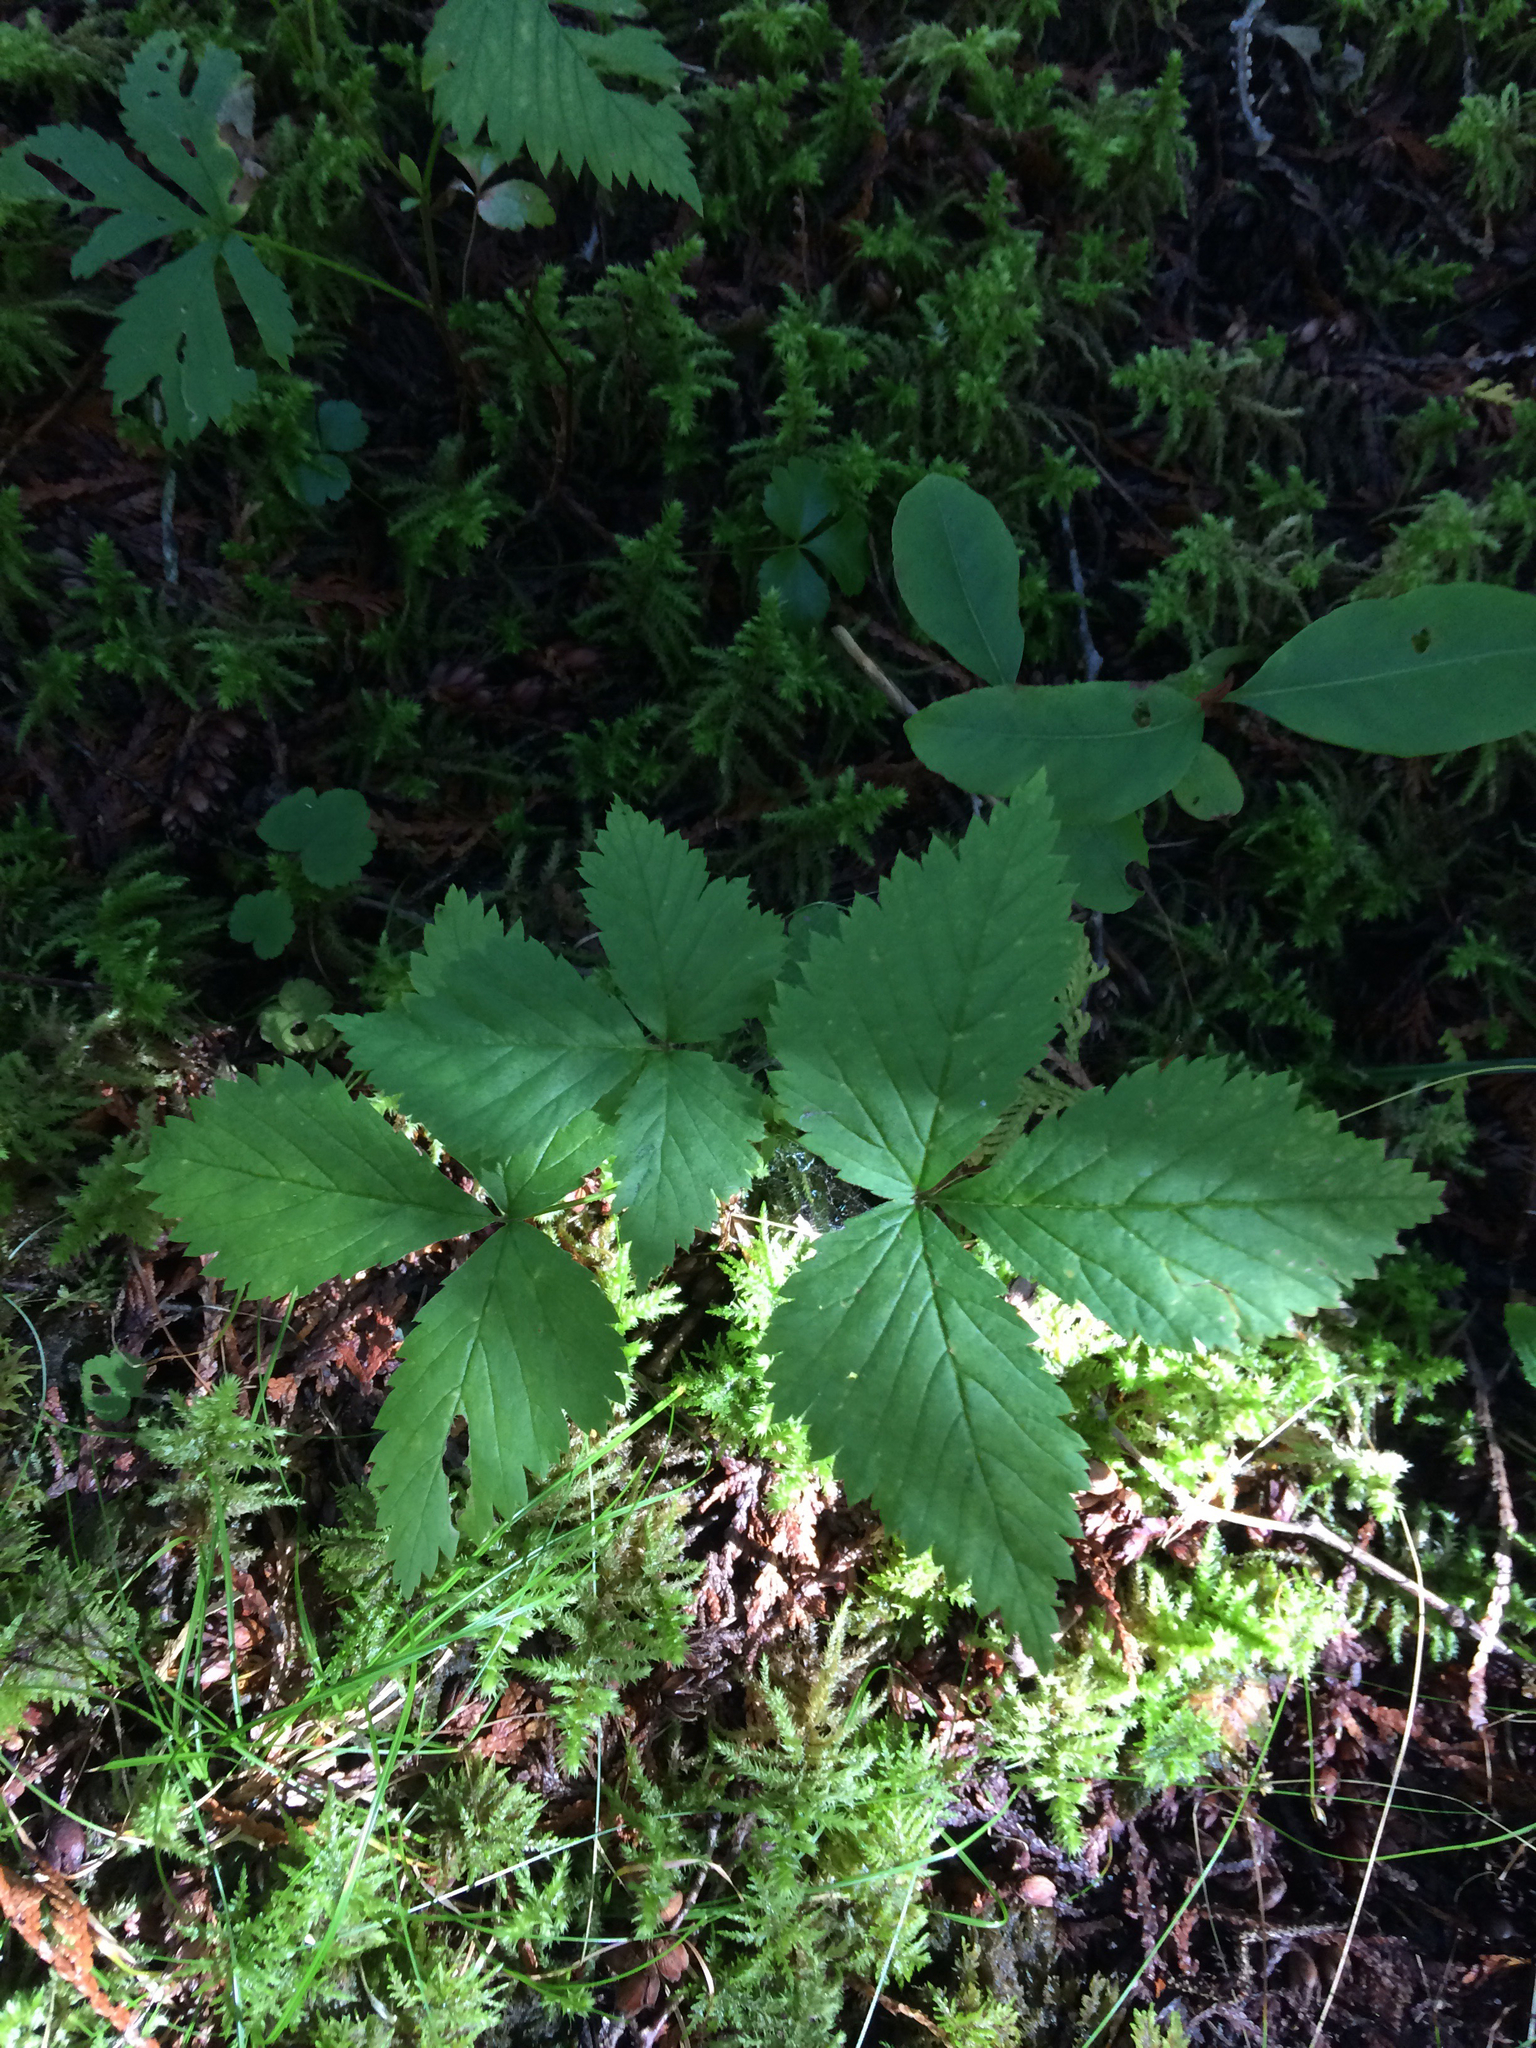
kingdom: Plantae
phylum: Tracheophyta
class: Magnoliopsida
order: Rosales
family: Rosaceae
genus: Rubus
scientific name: Rubus pubescens
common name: Dwarf raspberry
